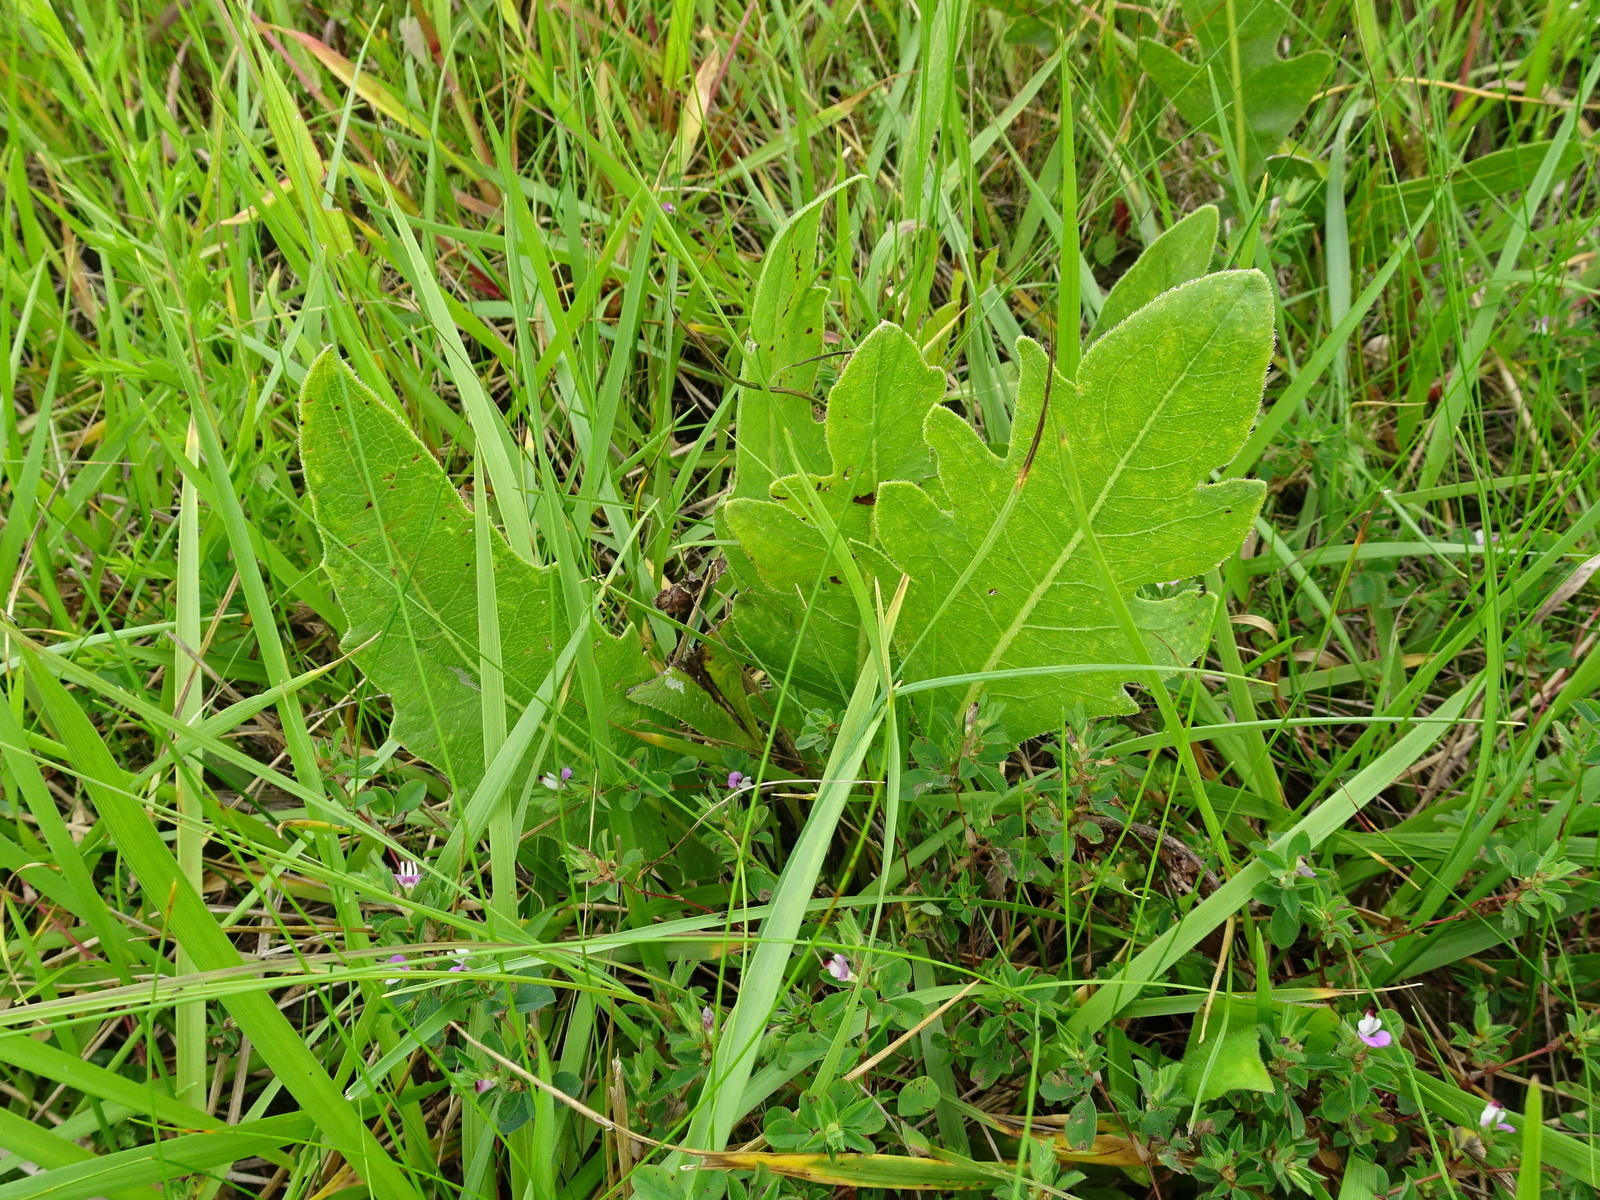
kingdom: Plantae
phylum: Tracheophyta
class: Magnoliopsida
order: Asterales
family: Asteraceae
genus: Silphium
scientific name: Silphium laciniatum
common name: Polarplant
